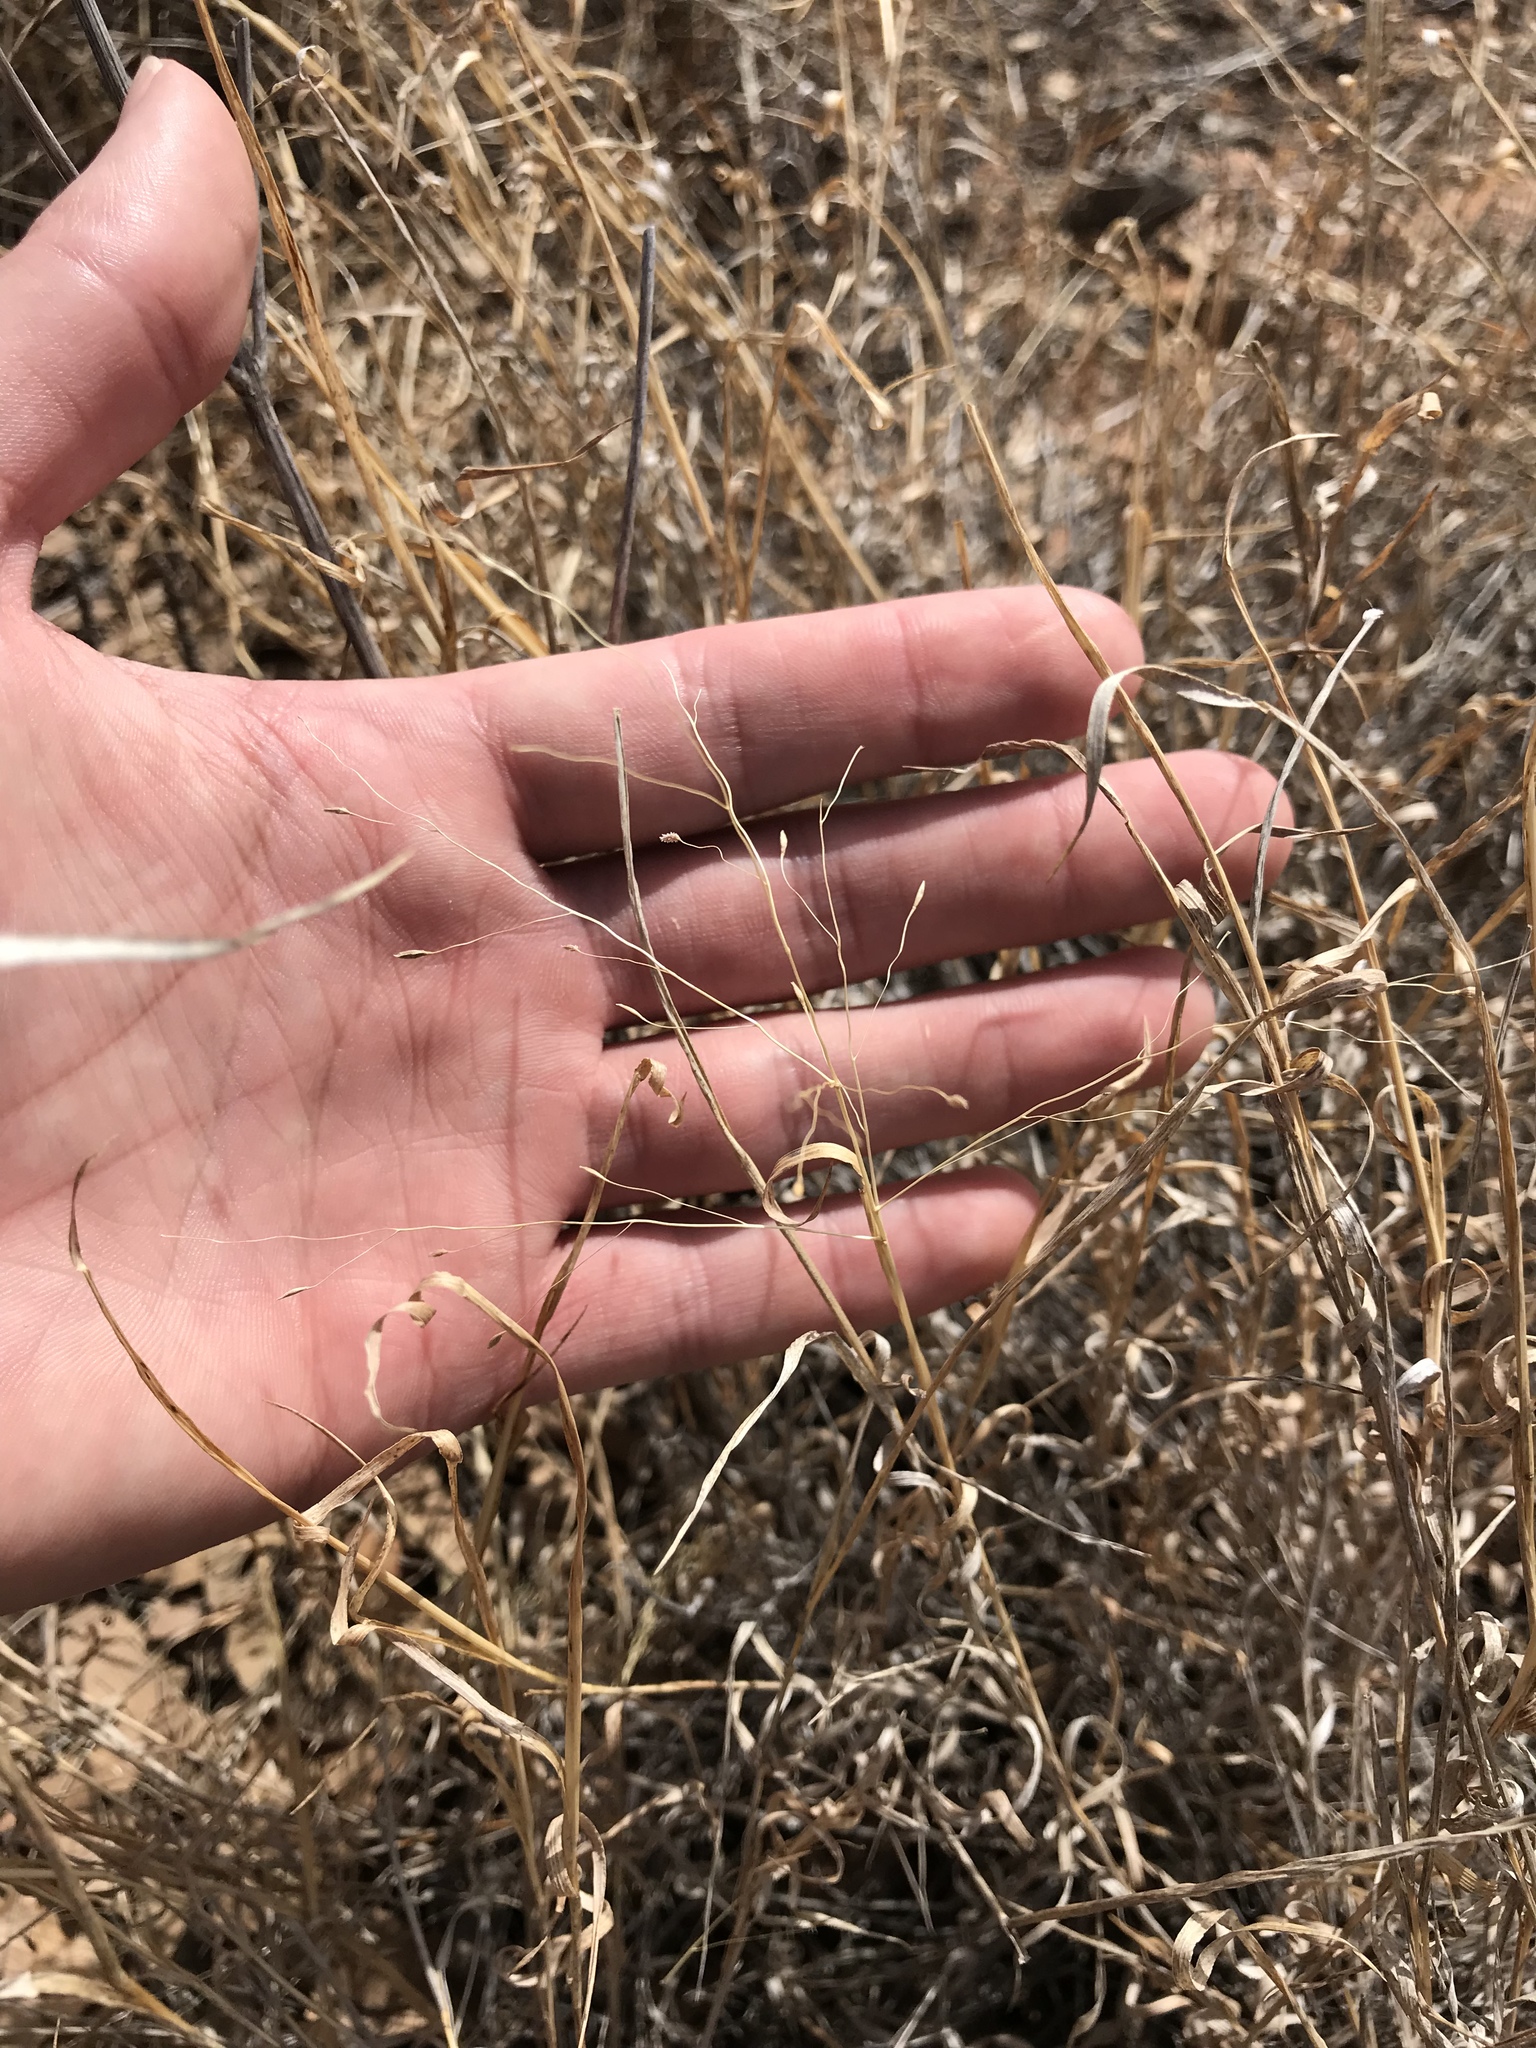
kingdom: Plantae
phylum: Tracheophyta
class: Liliopsida
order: Poales
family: Poaceae
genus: Digitaria
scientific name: Digitaria cognata
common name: Fall witchgrass
